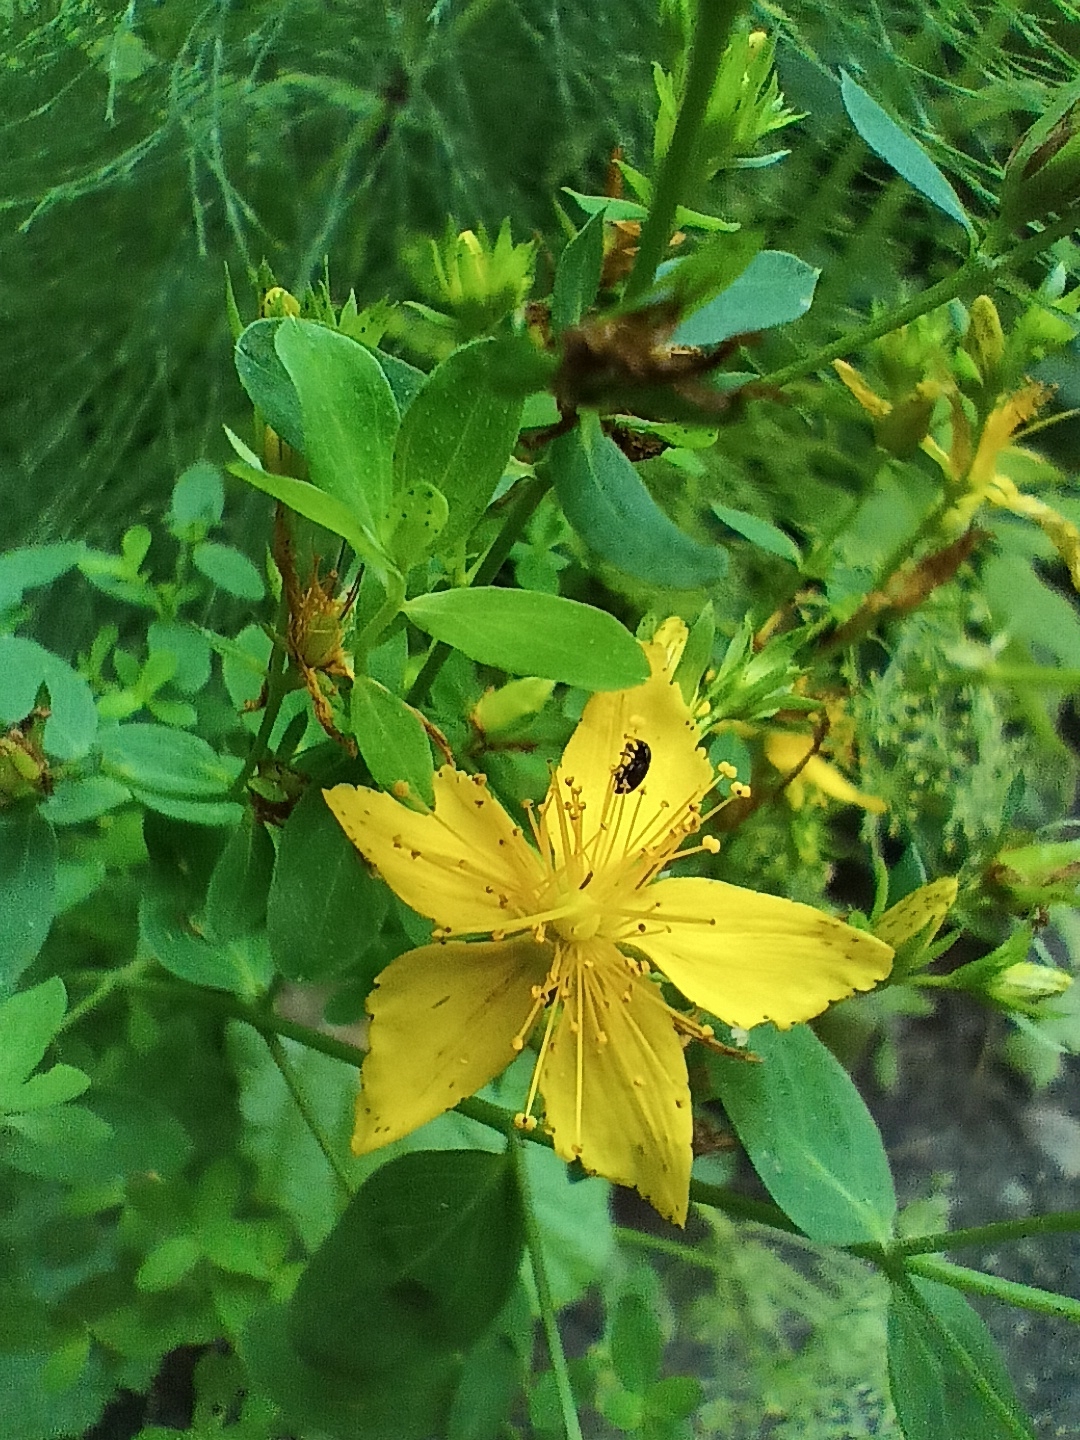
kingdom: Plantae
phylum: Tracheophyta
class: Magnoliopsida
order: Malpighiales
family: Hypericaceae
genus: Hypericum
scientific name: Hypericum perforatum
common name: Common st. johnswort
